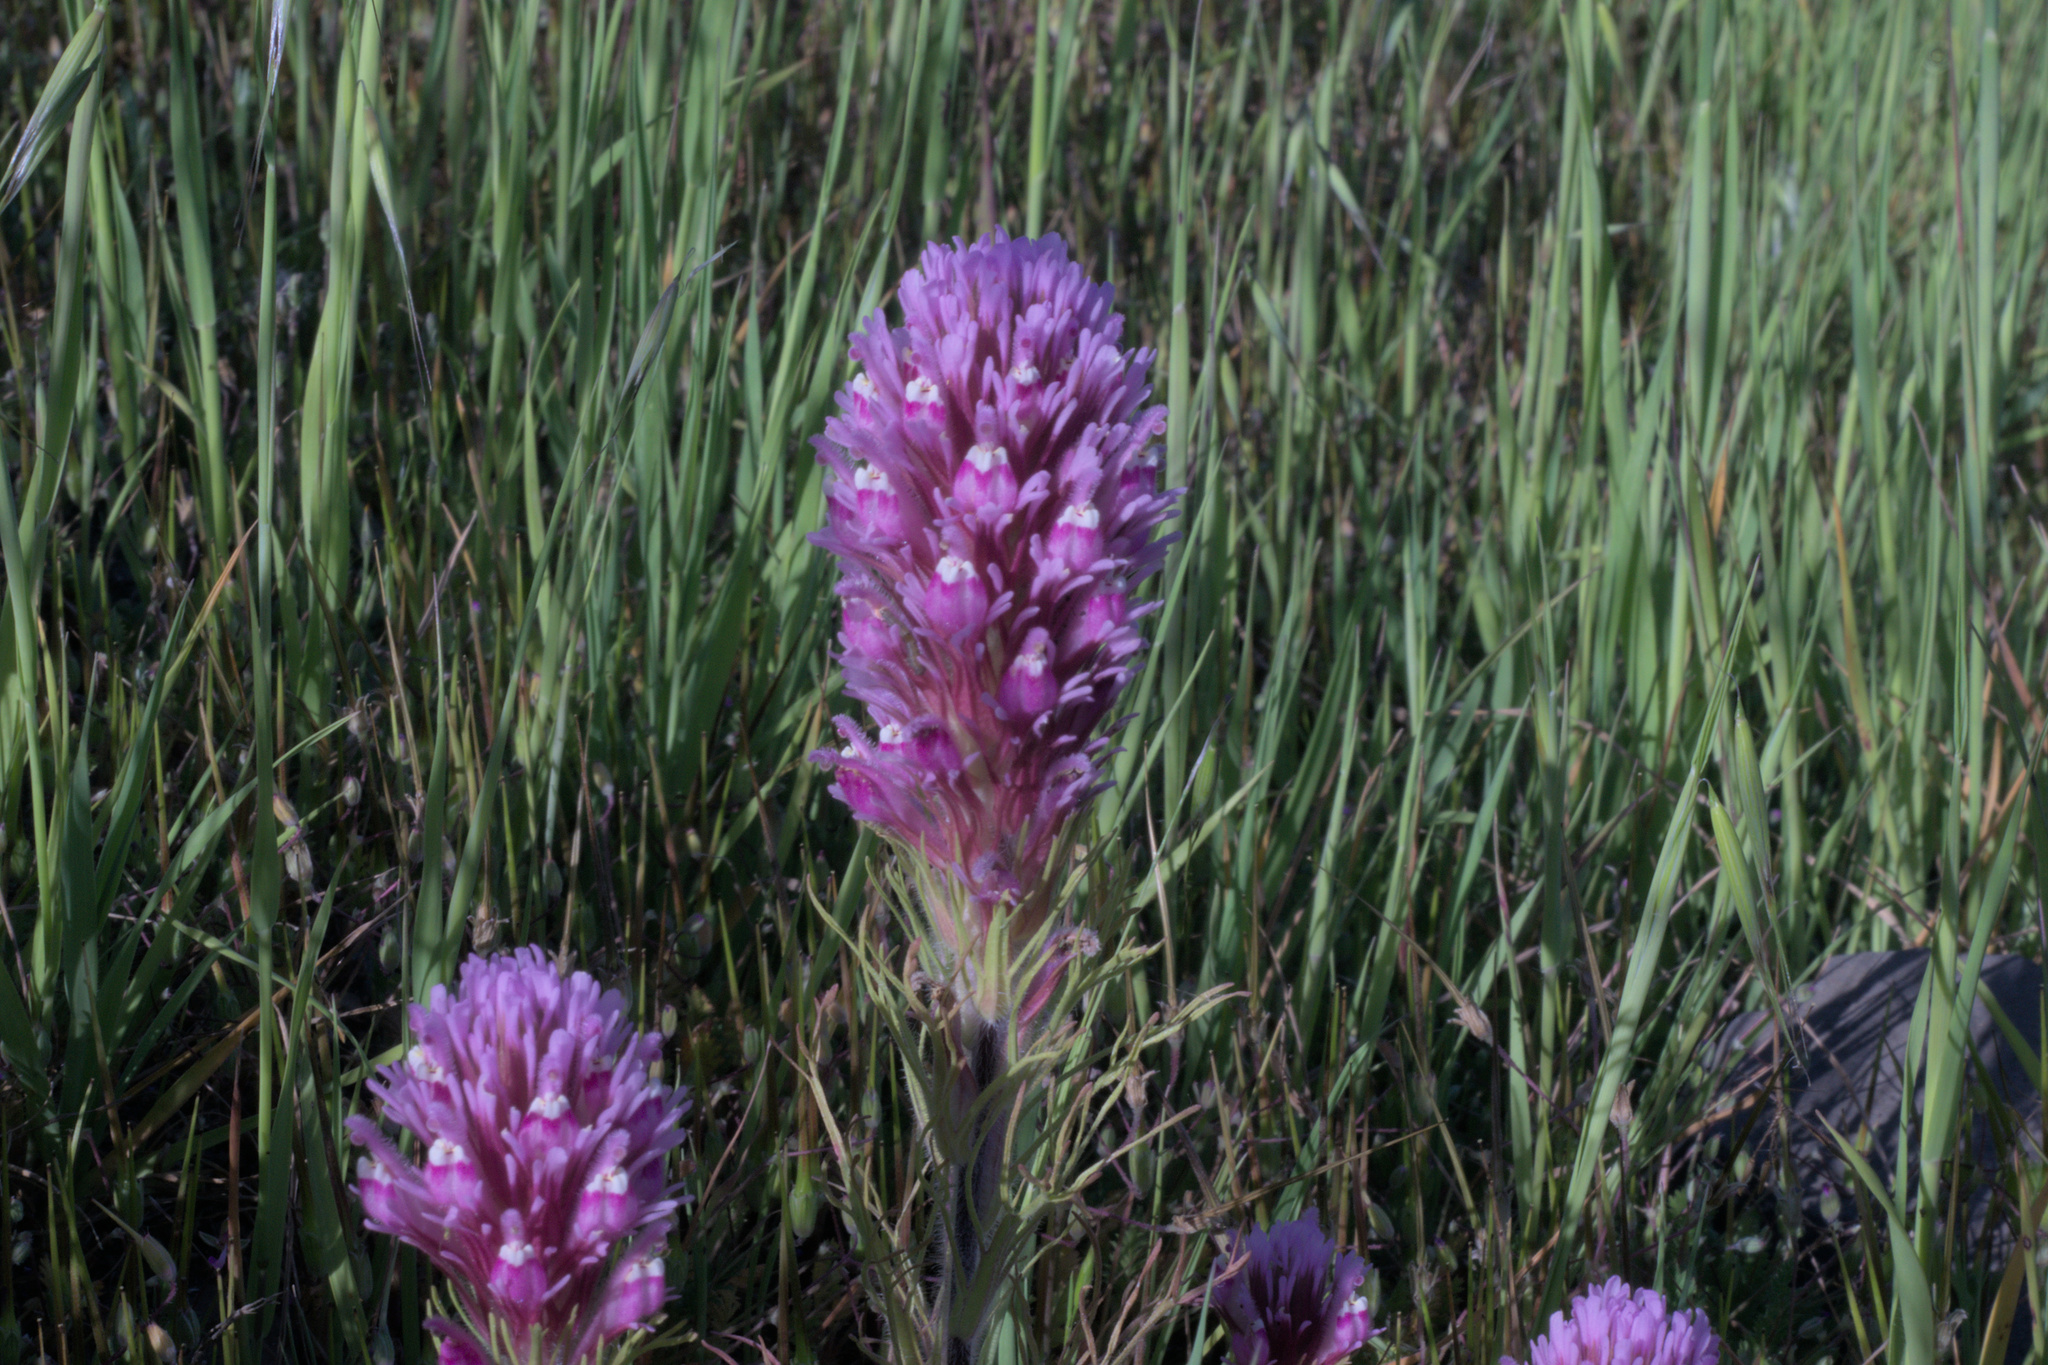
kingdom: Plantae
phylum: Tracheophyta
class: Magnoliopsida
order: Lamiales
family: Orobanchaceae
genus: Castilleja
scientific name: Castilleja exserta
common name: Purple owl-clover
